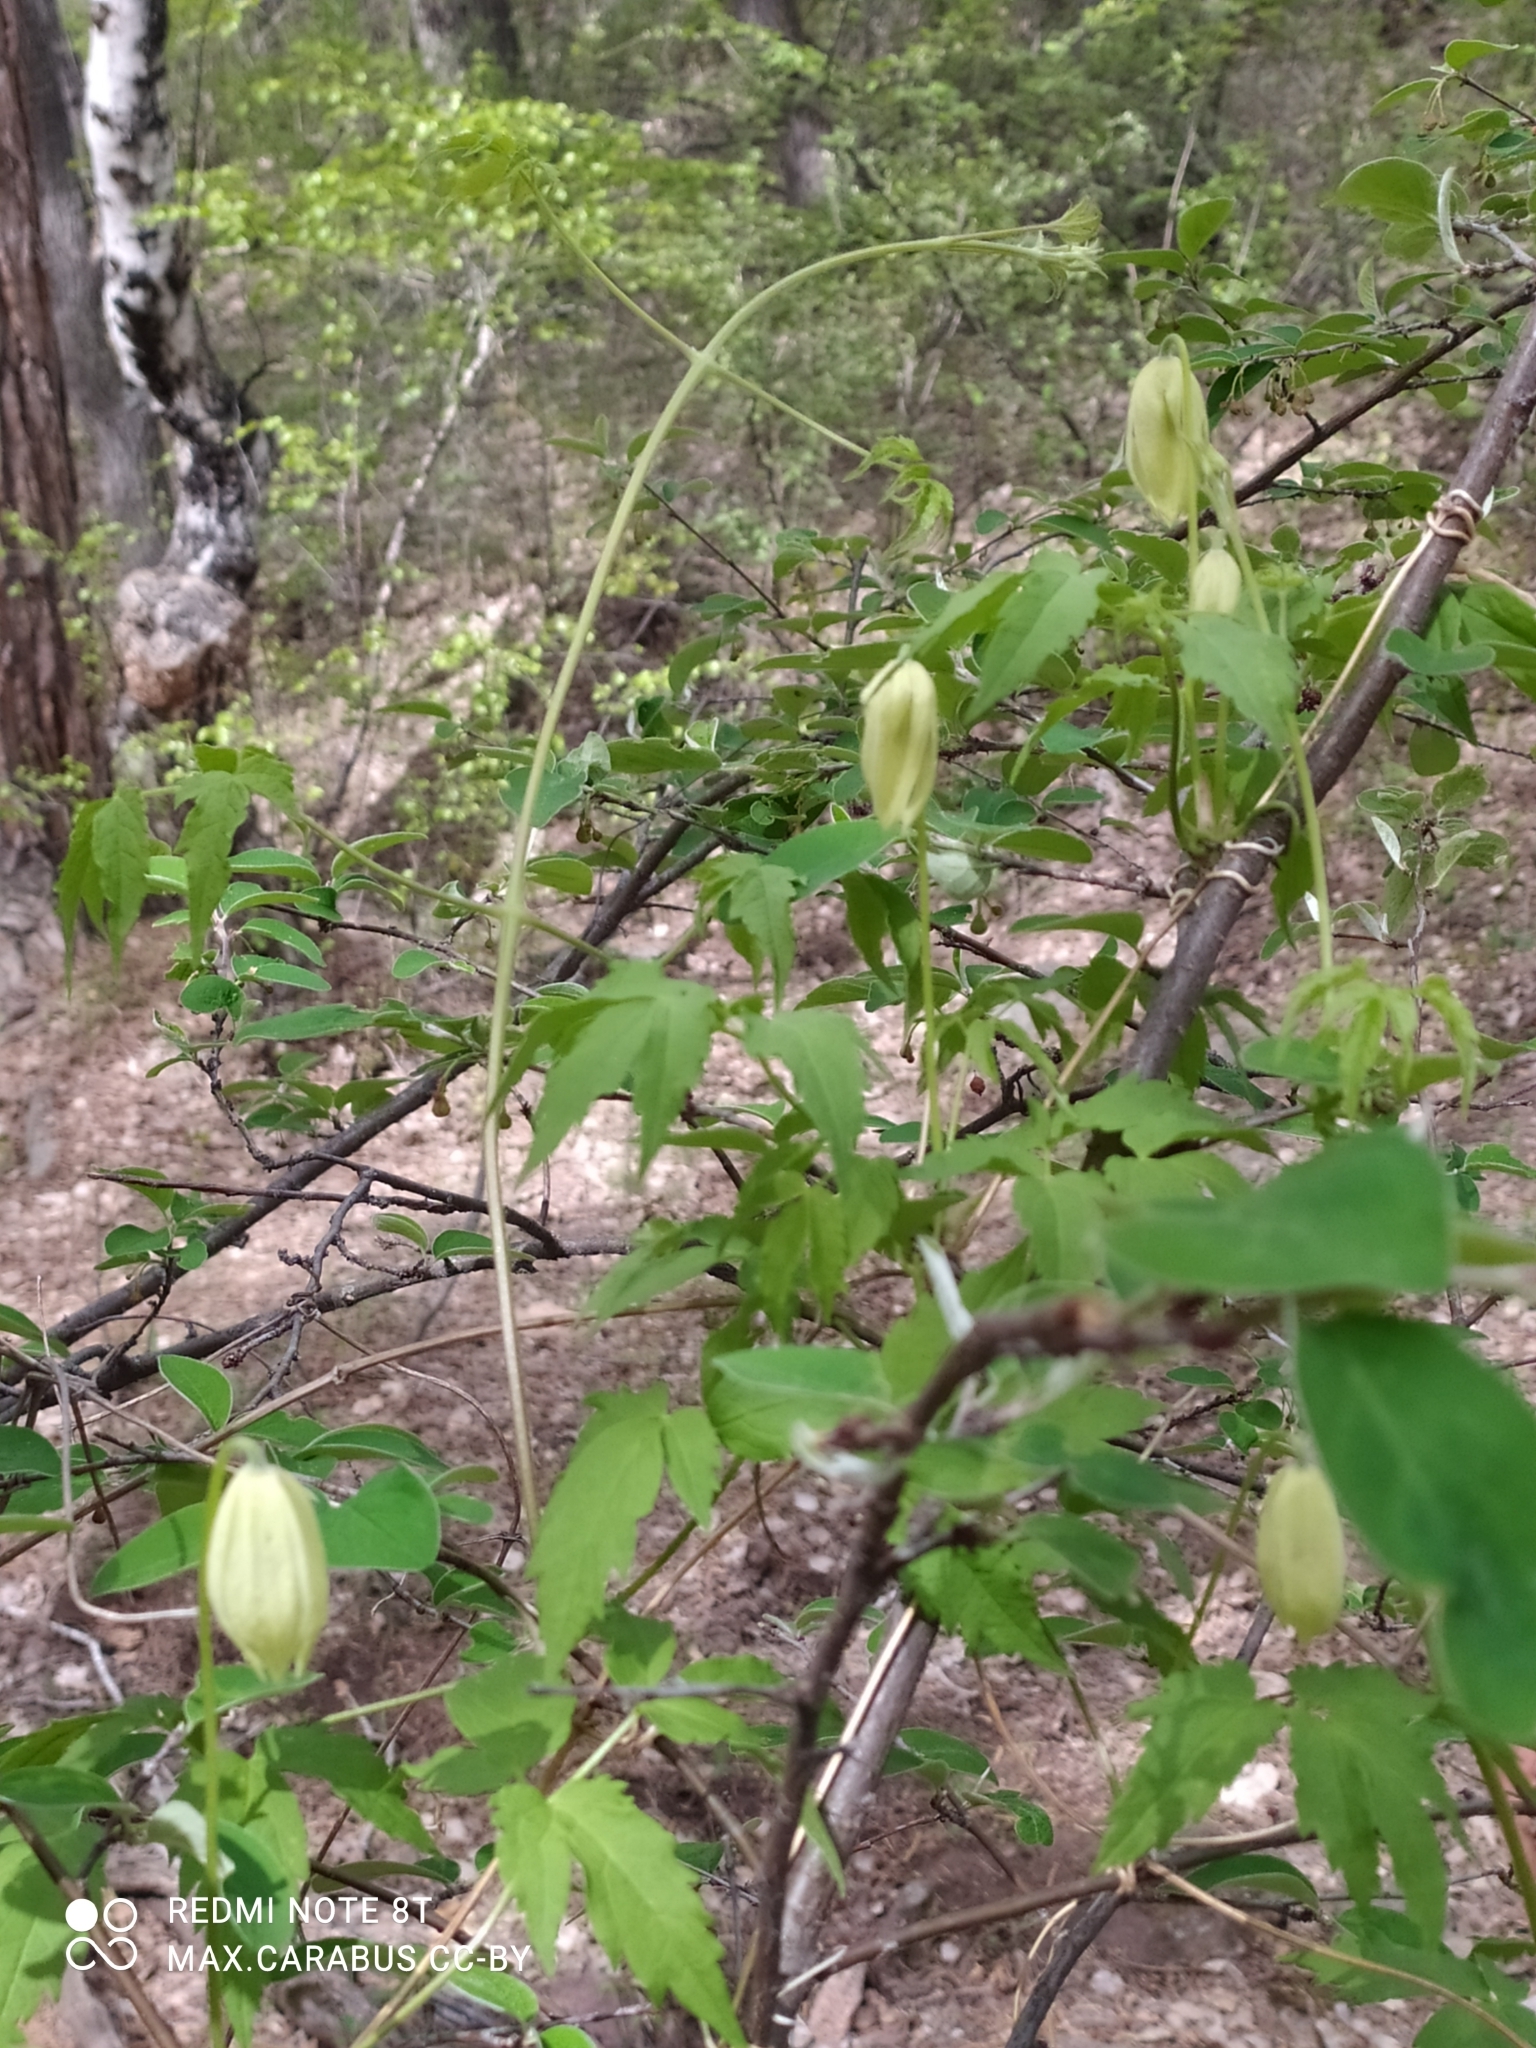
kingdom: Plantae
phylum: Tracheophyta
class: Magnoliopsida
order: Ranunculales
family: Ranunculaceae
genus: Clematis
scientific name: Clematis sibirica
